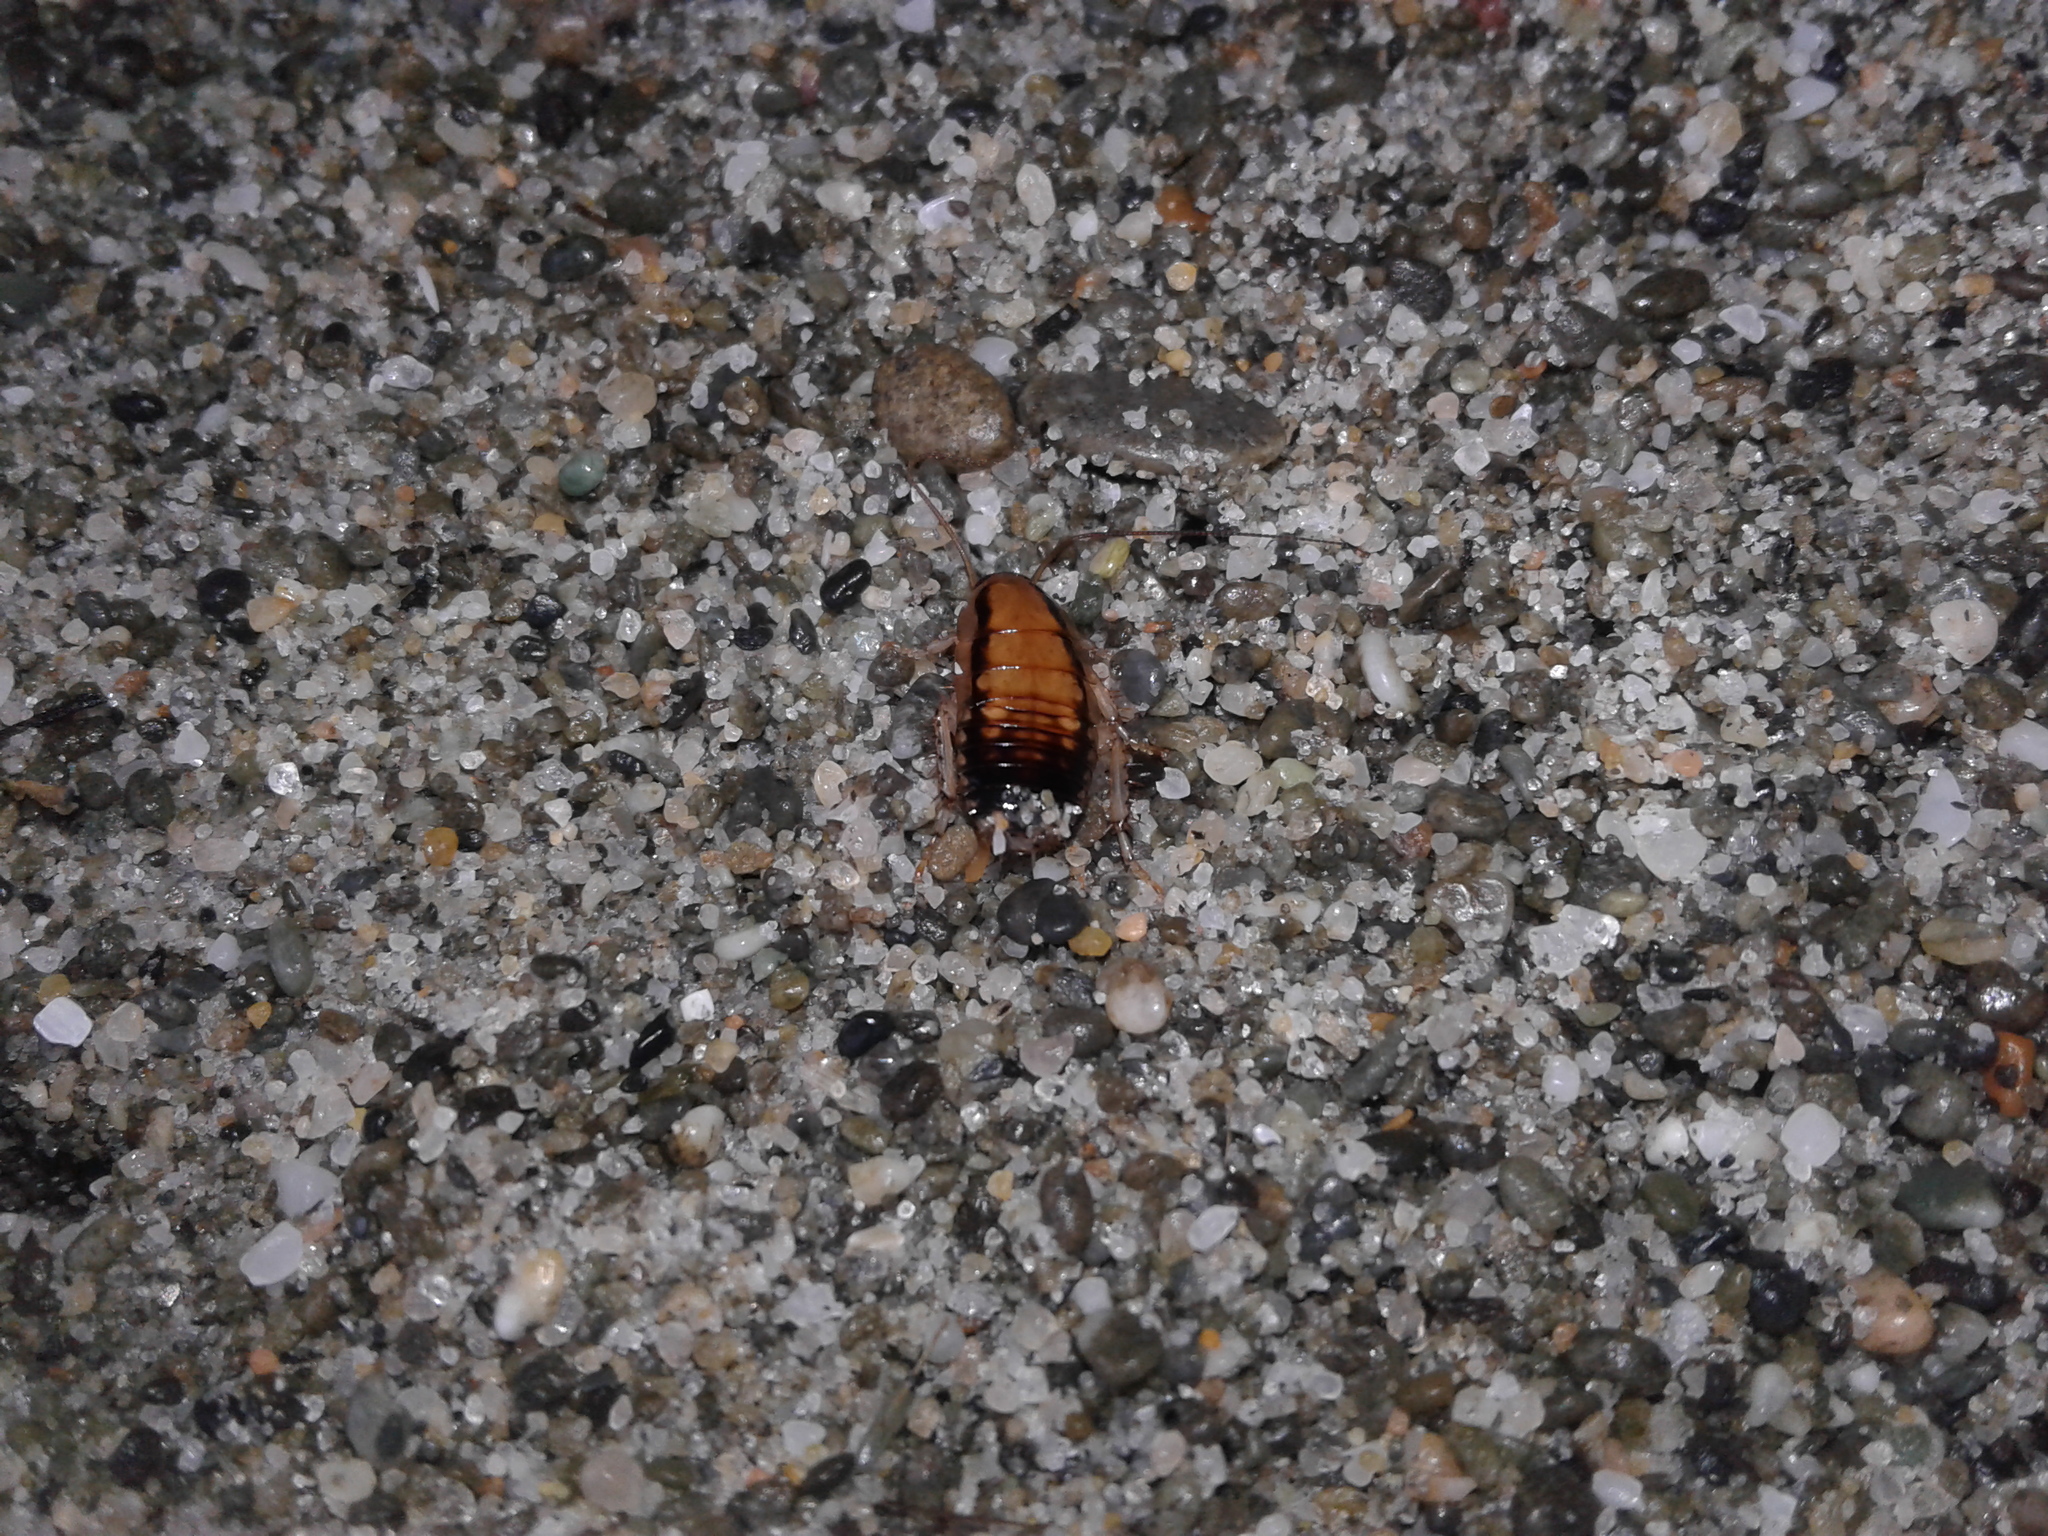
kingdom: Animalia
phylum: Arthropoda
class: Insecta
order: Blattodea
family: Blattidae
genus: Celatoblatta
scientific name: Celatoblatta vulgaris
